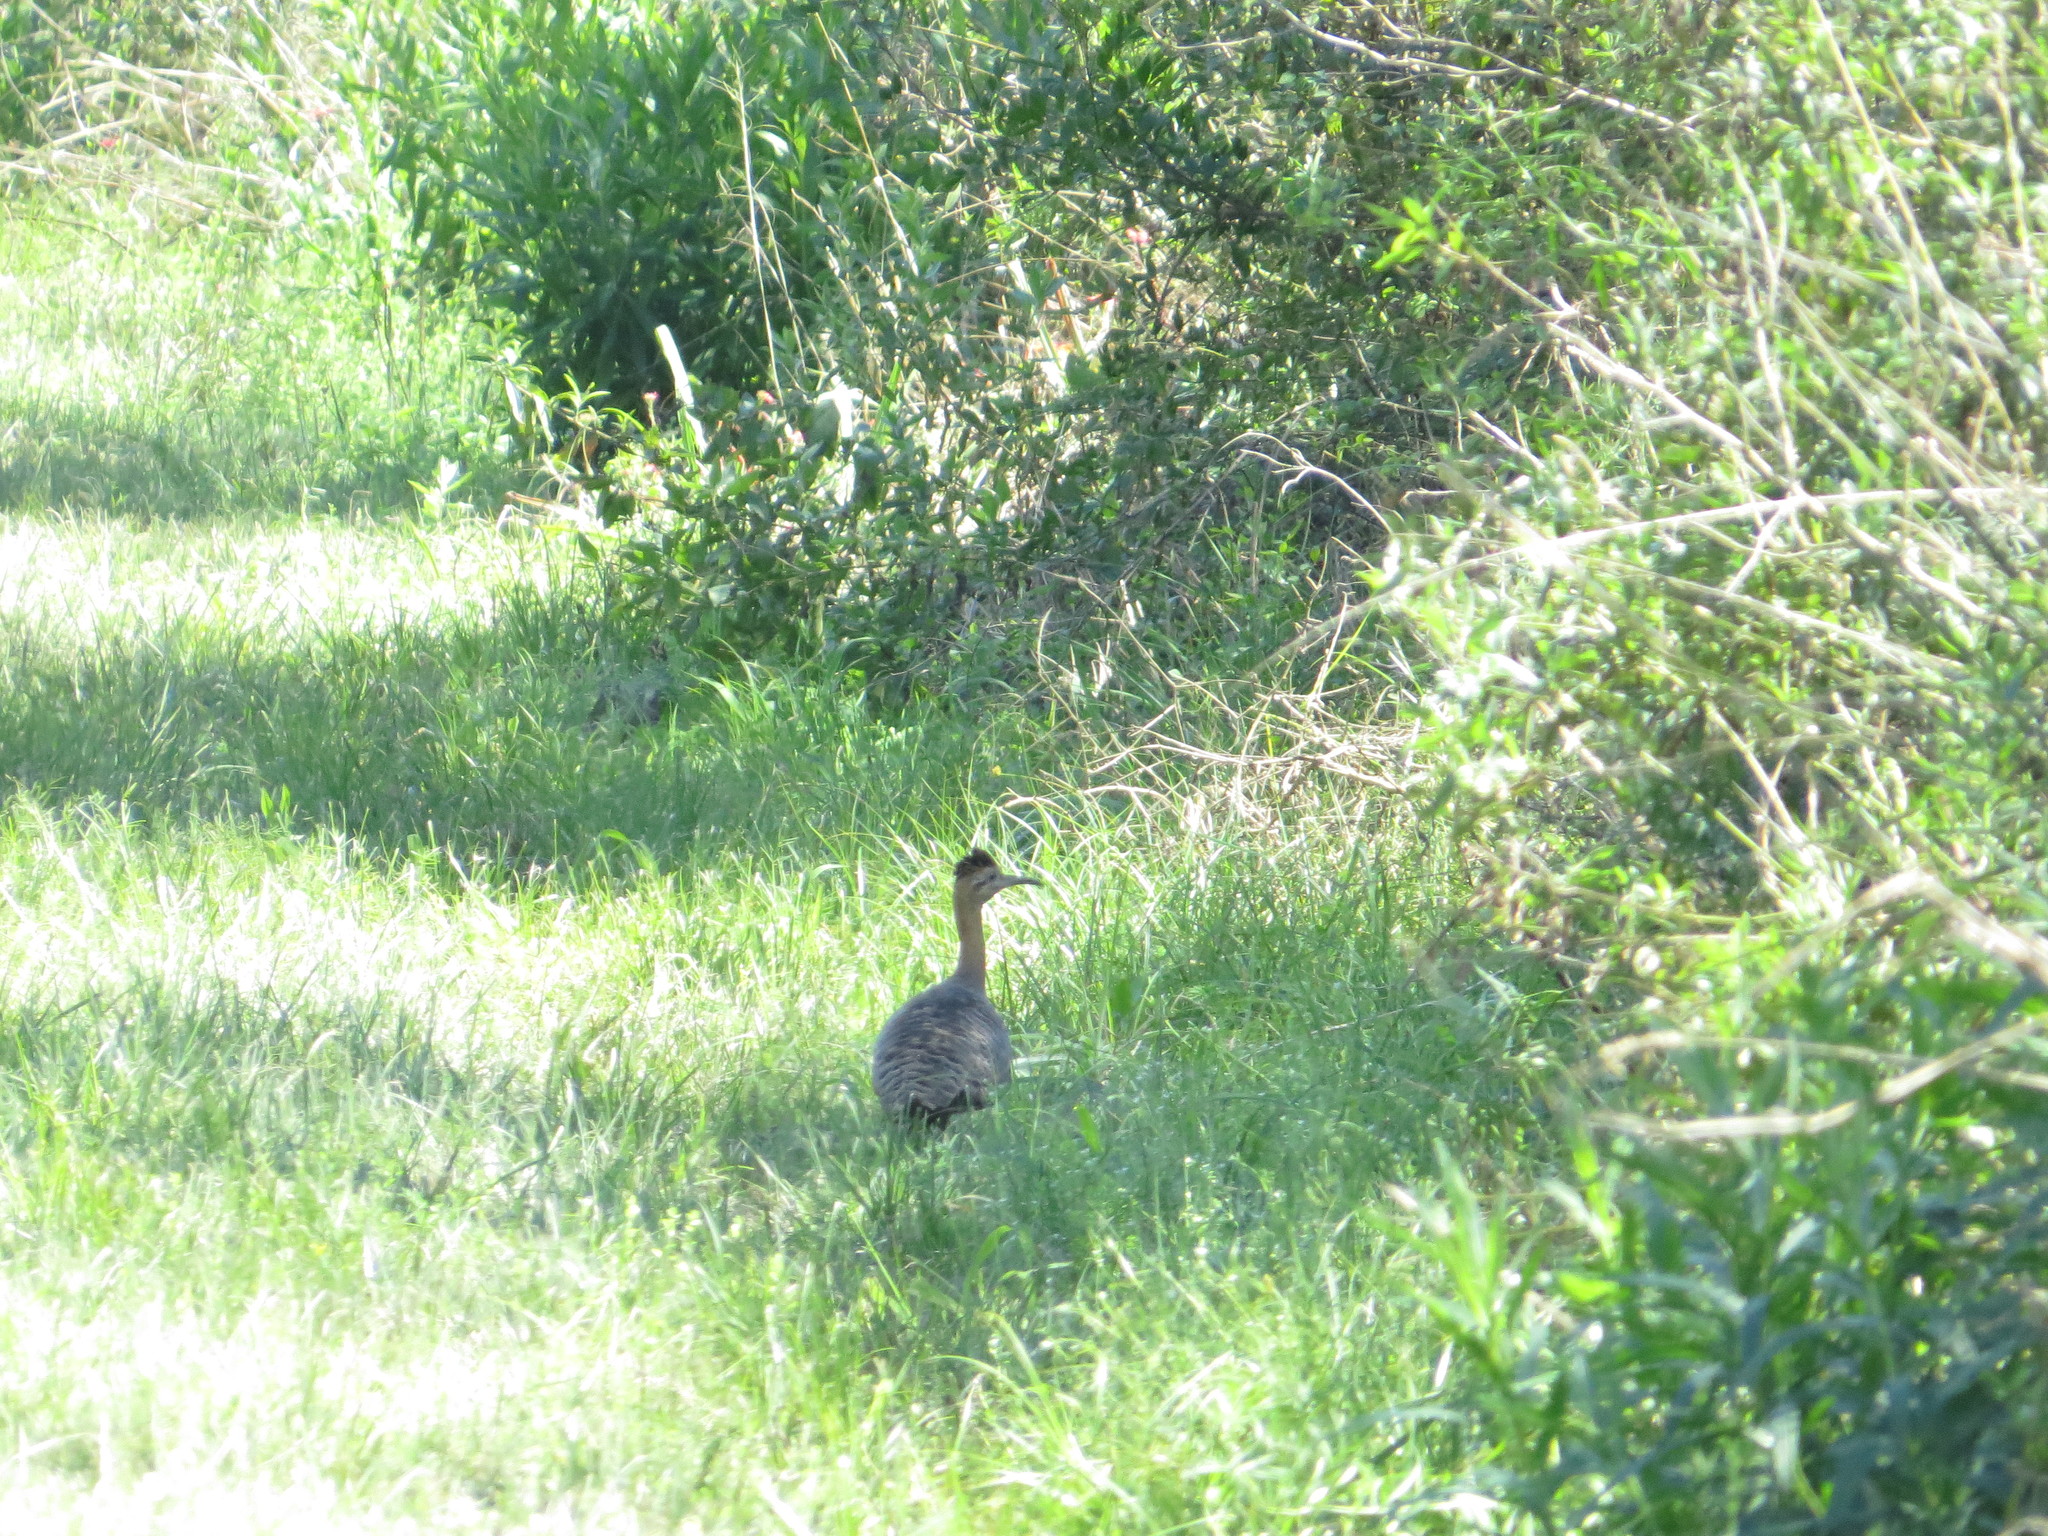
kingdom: Animalia
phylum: Chordata
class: Aves
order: Tinamiformes
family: Tinamidae
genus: Rhynchotus
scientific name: Rhynchotus rufescens
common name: Red-winged tinamou
